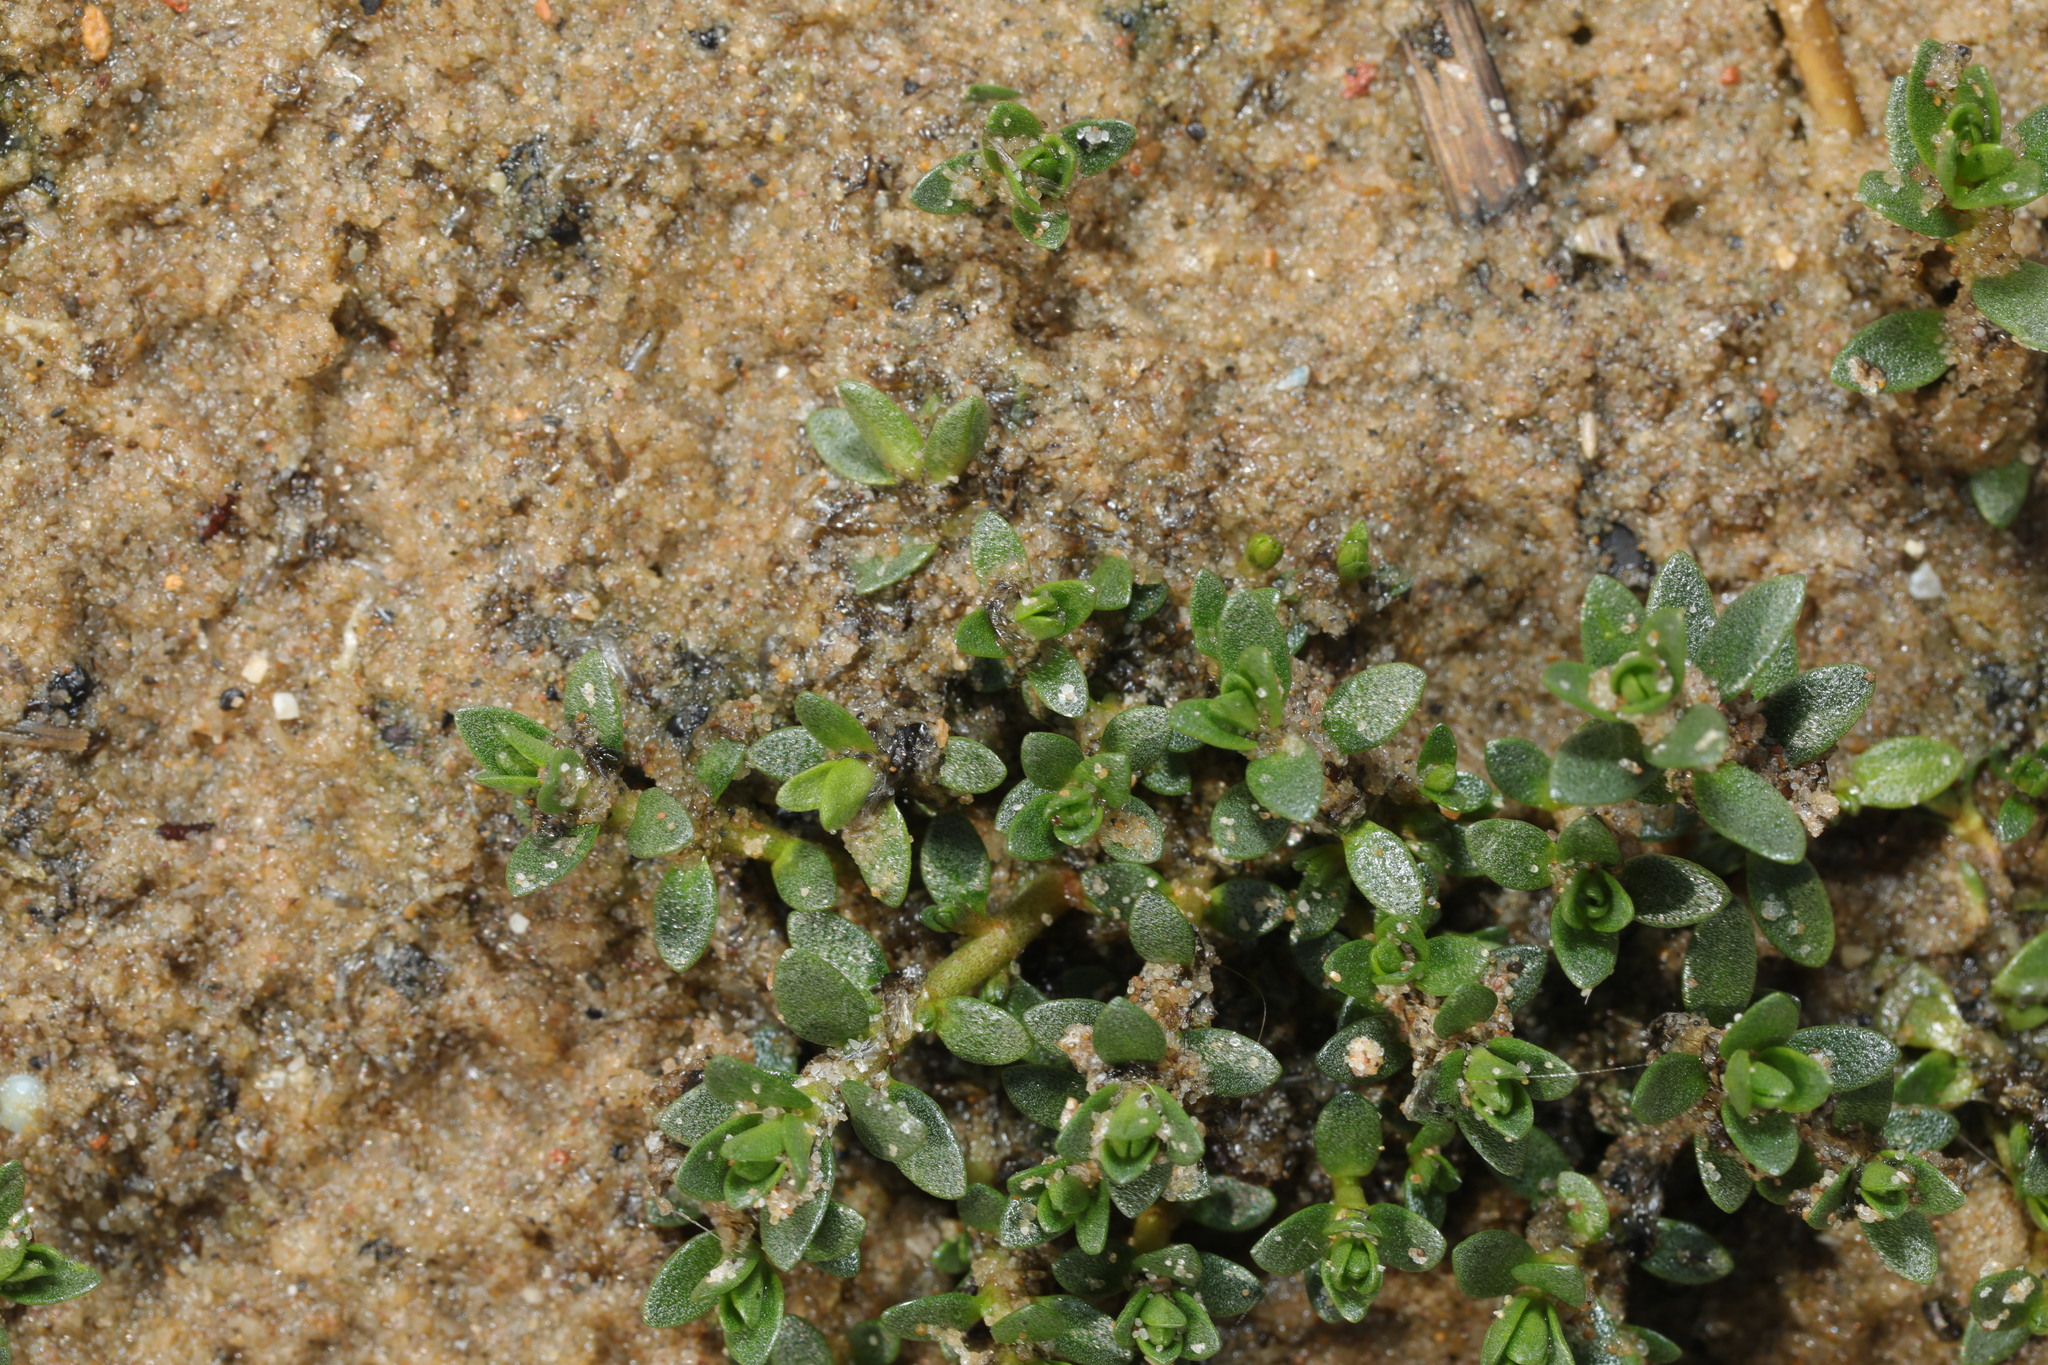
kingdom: Plantae
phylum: Tracheophyta
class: Magnoliopsida
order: Ericales
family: Primulaceae
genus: Lysimachia
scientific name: Lysimachia maritima
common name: Sea milkwort
